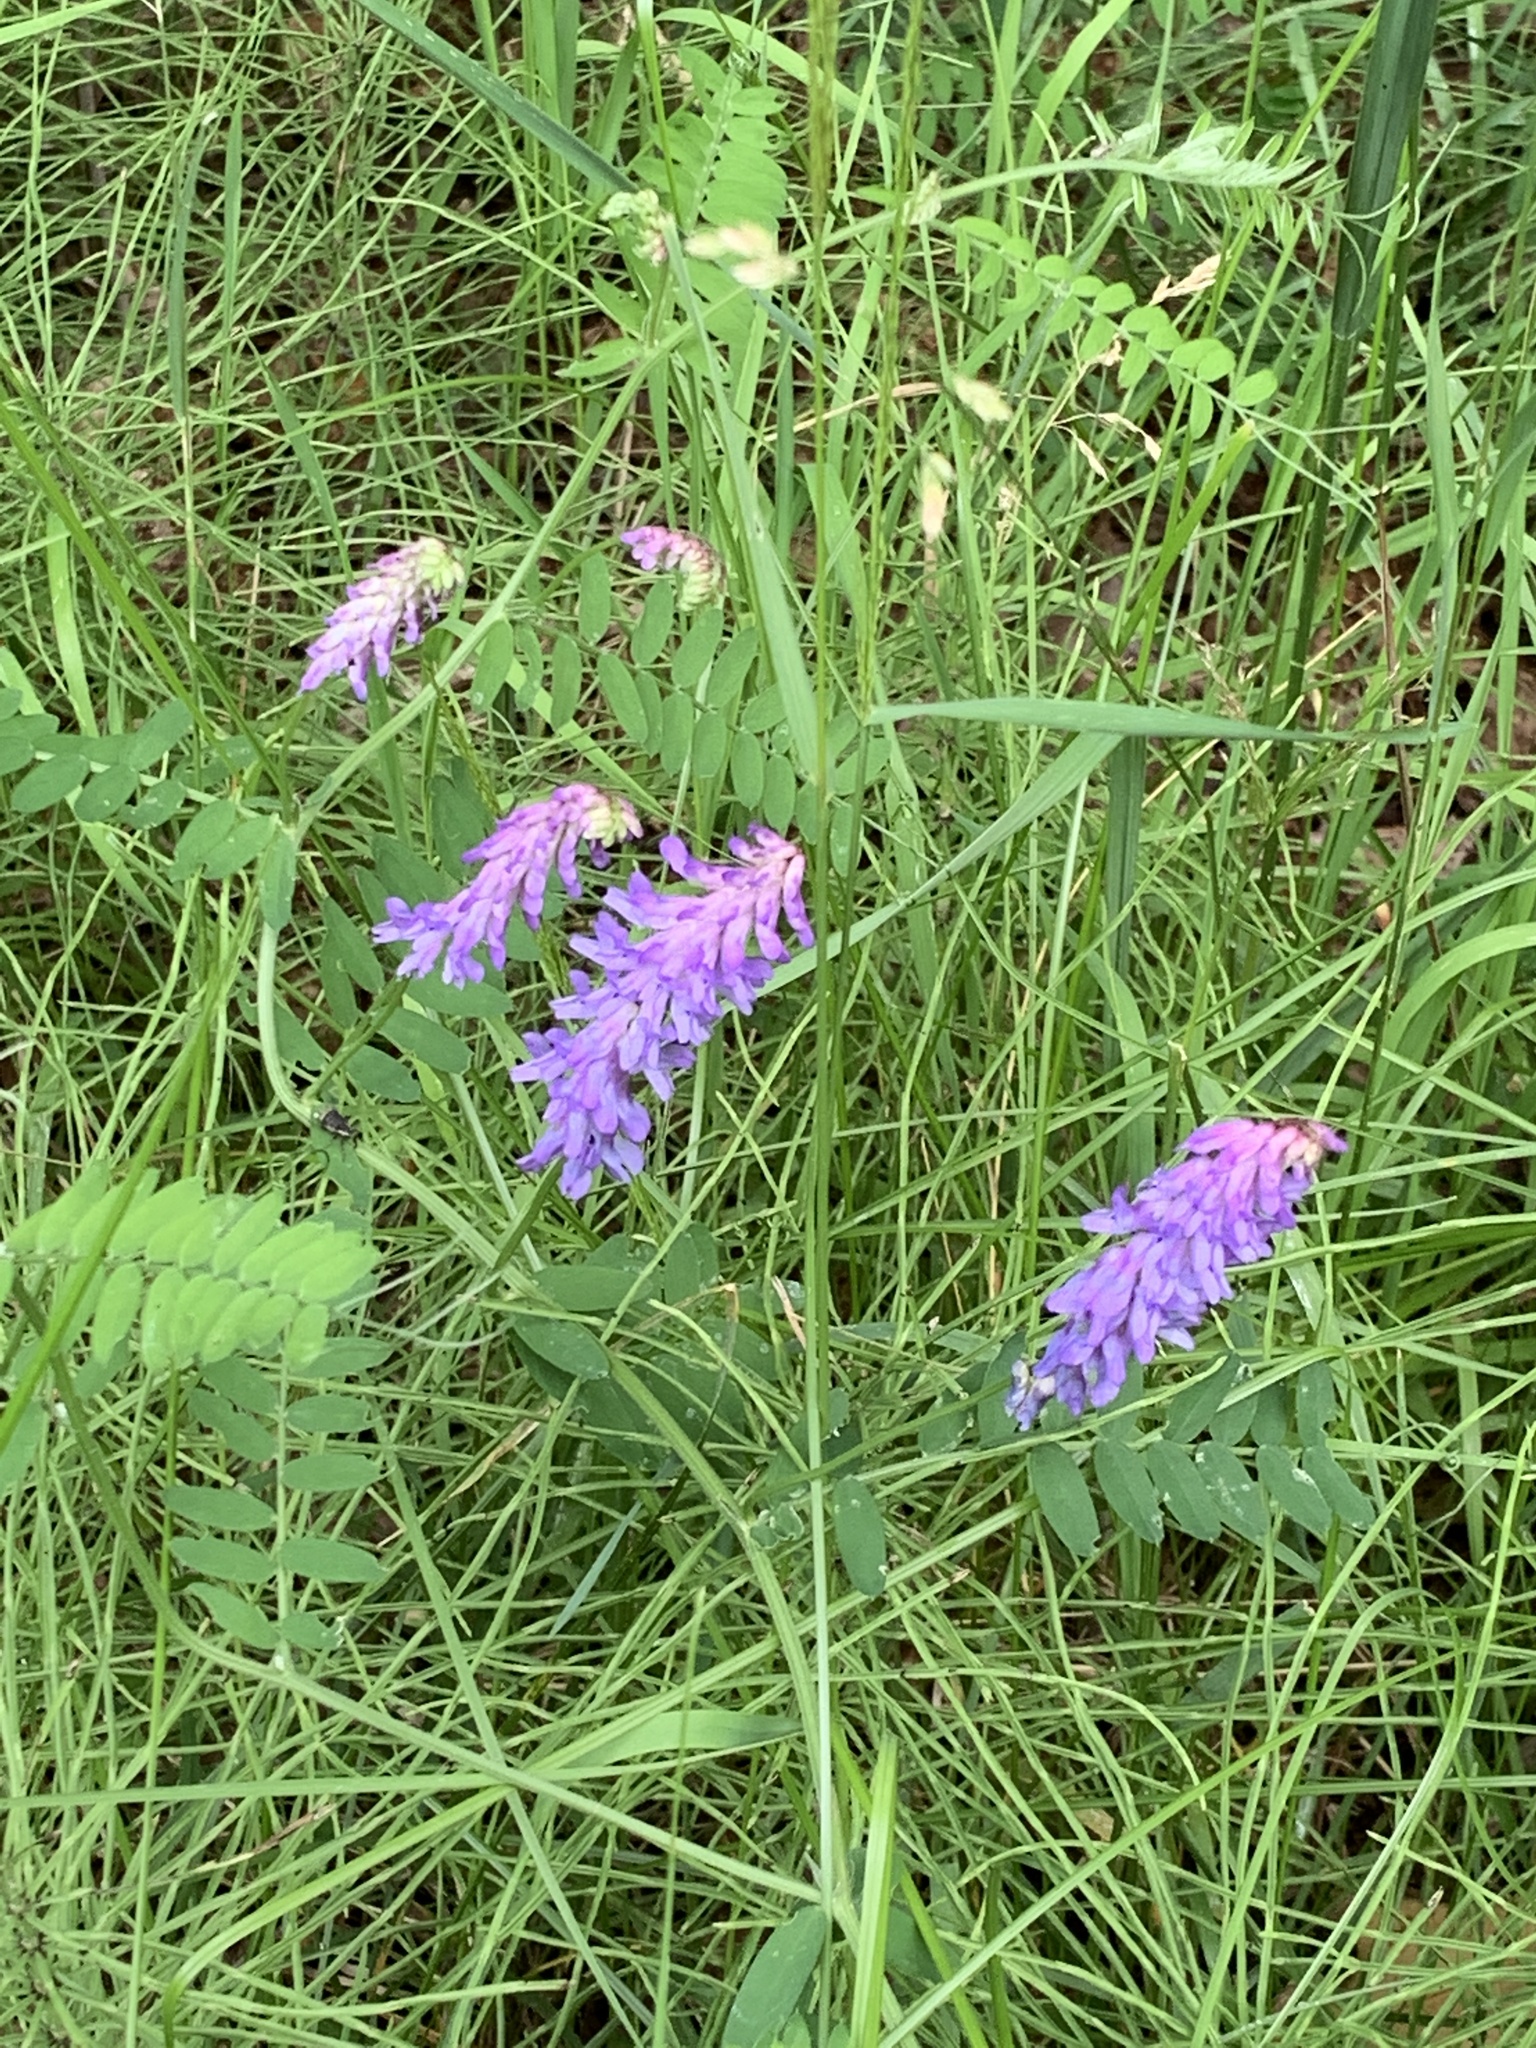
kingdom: Plantae
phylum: Tracheophyta
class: Magnoliopsida
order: Fabales
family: Fabaceae
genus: Vicia
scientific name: Vicia cracca
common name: Bird vetch
